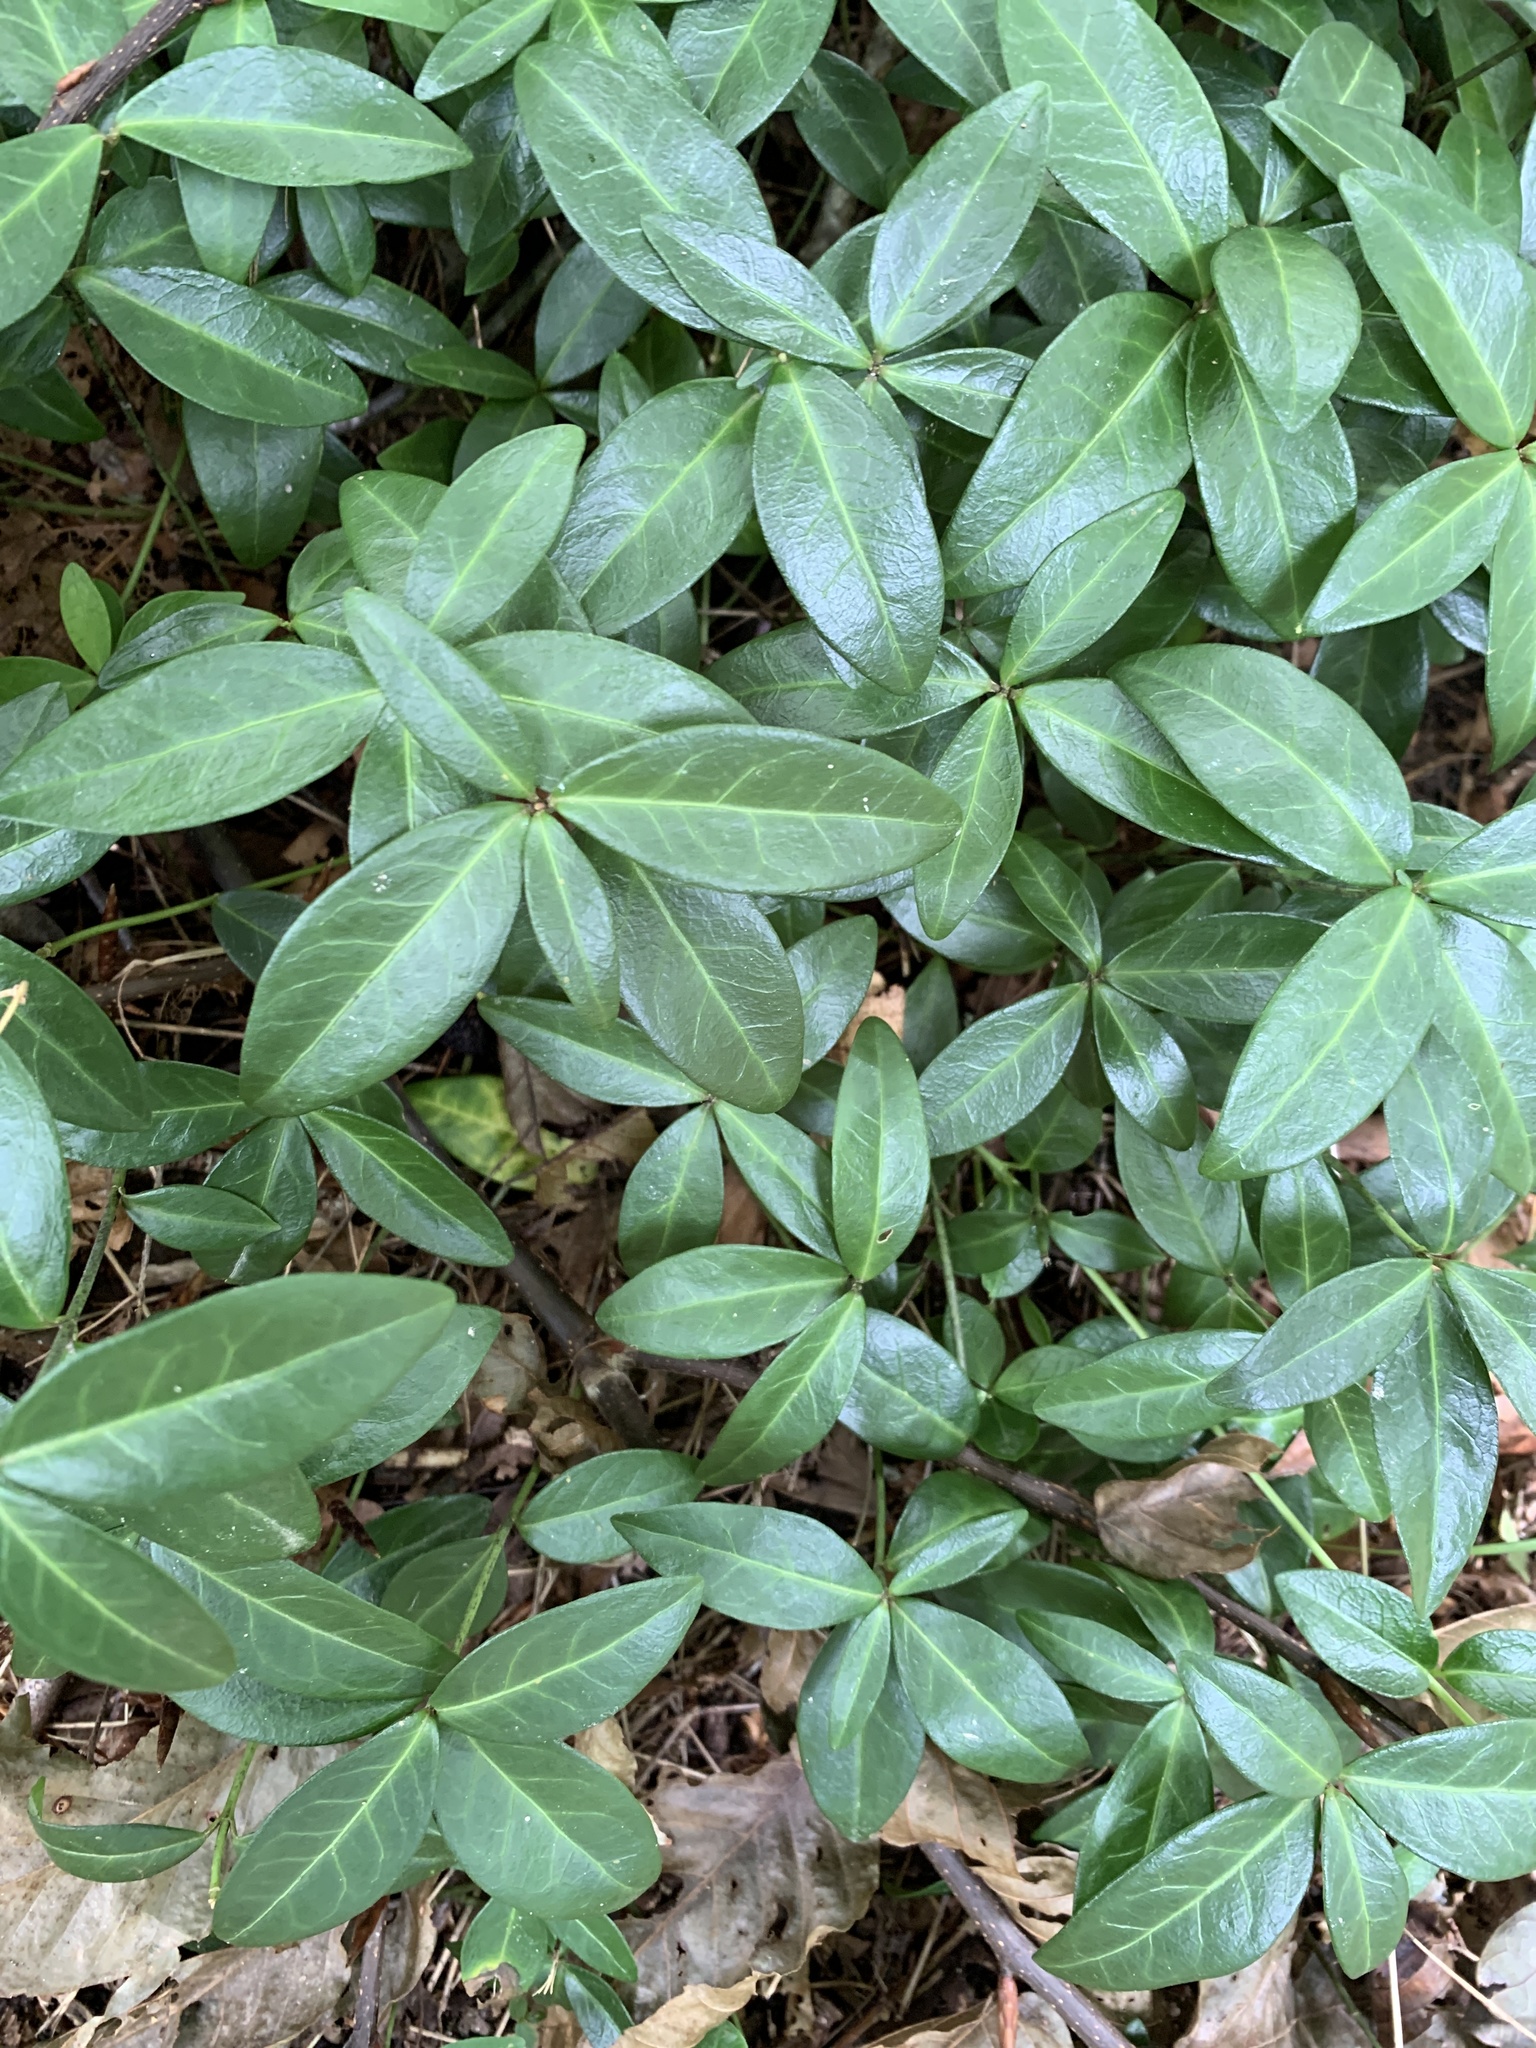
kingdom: Plantae
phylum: Tracheophyta
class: Magnoliopsida
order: Gentianales
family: Apocynaceae
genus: Vinca
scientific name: Vinca minor
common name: Lesser periwinkle
